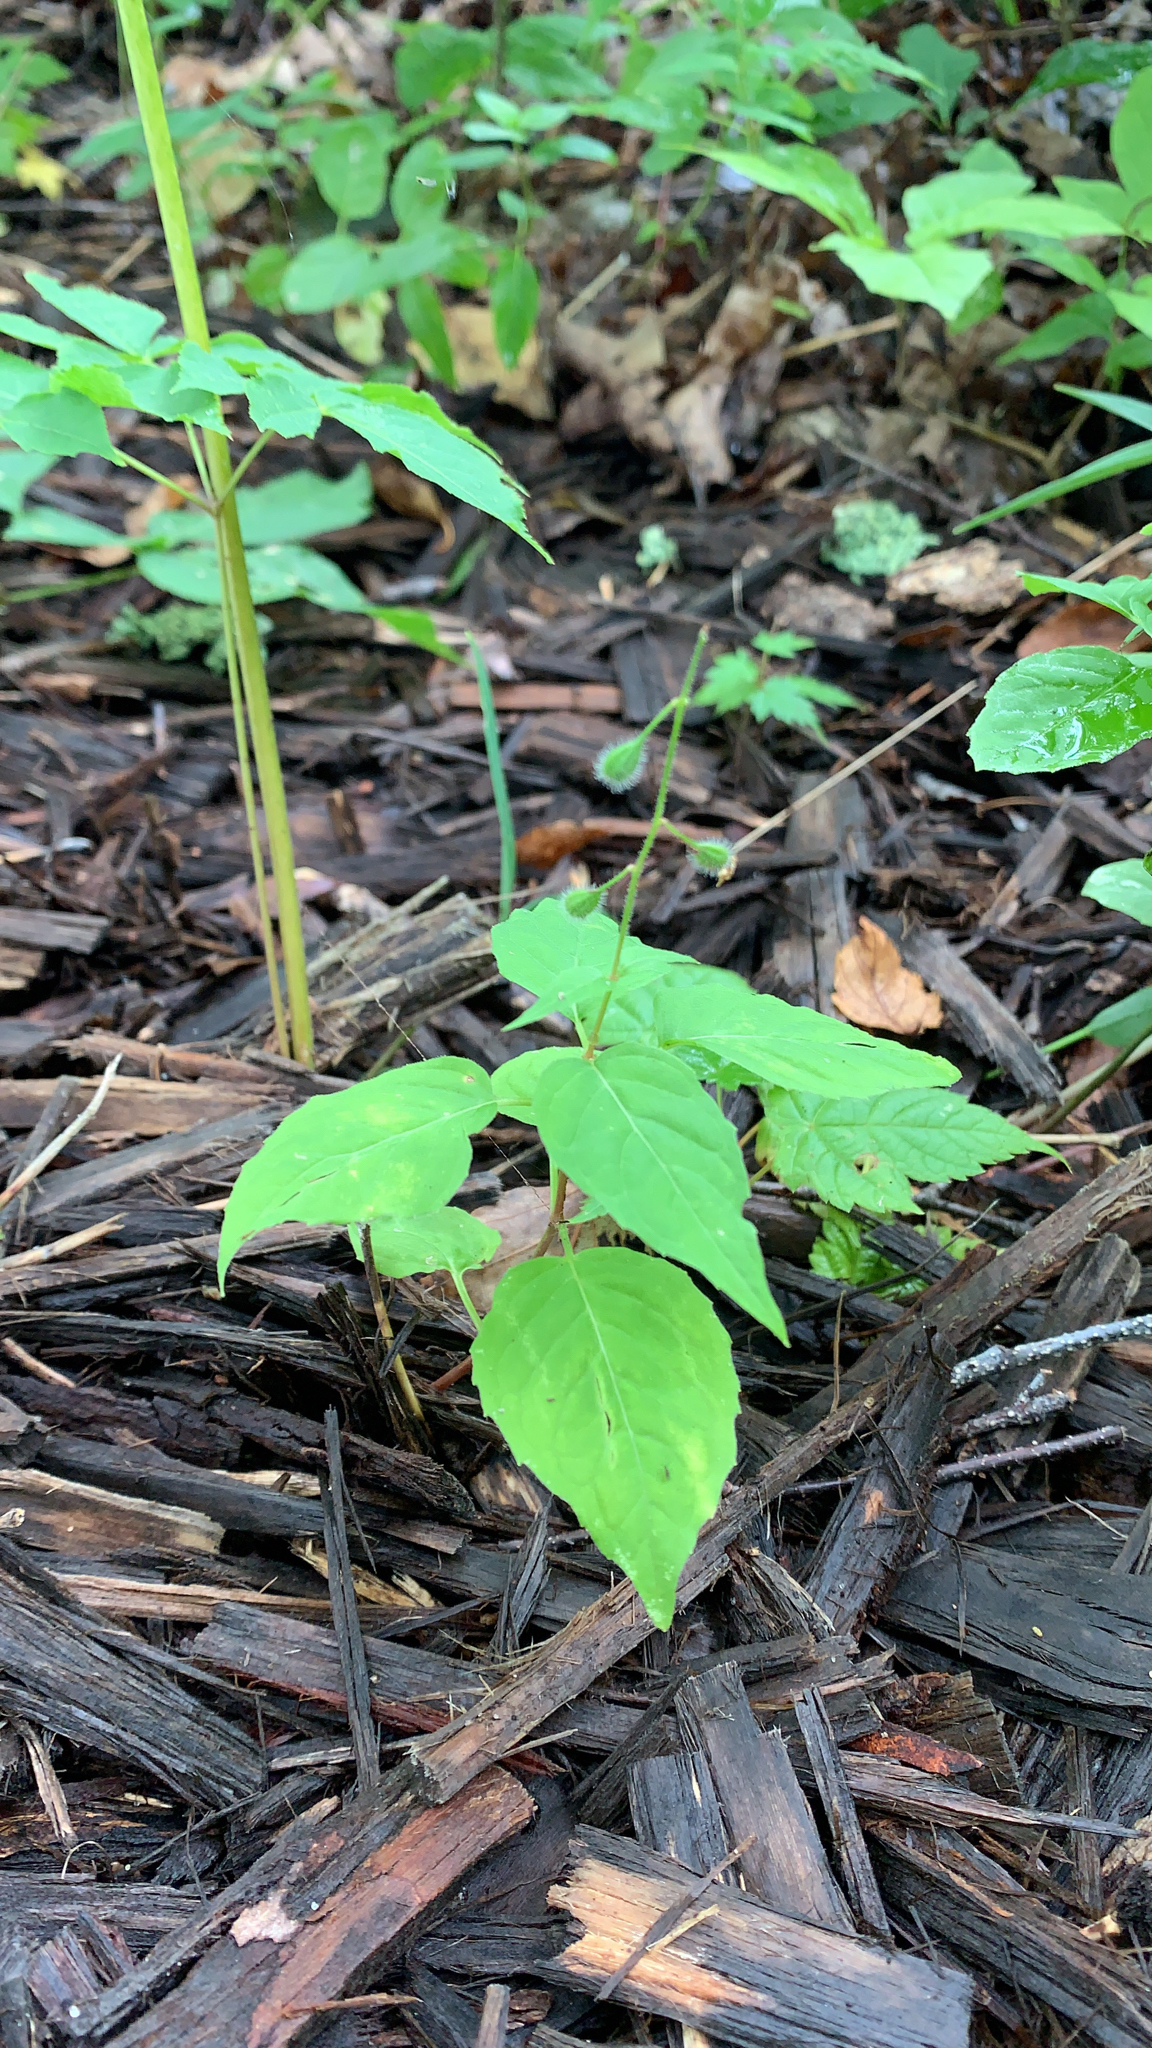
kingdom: Plantae
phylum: Tracheophyta
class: Magnoliopsida
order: Myrtales
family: Onagraceae
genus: Circaea
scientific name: Circaea canadensis
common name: Broad-leaved enchanter's nightshade
